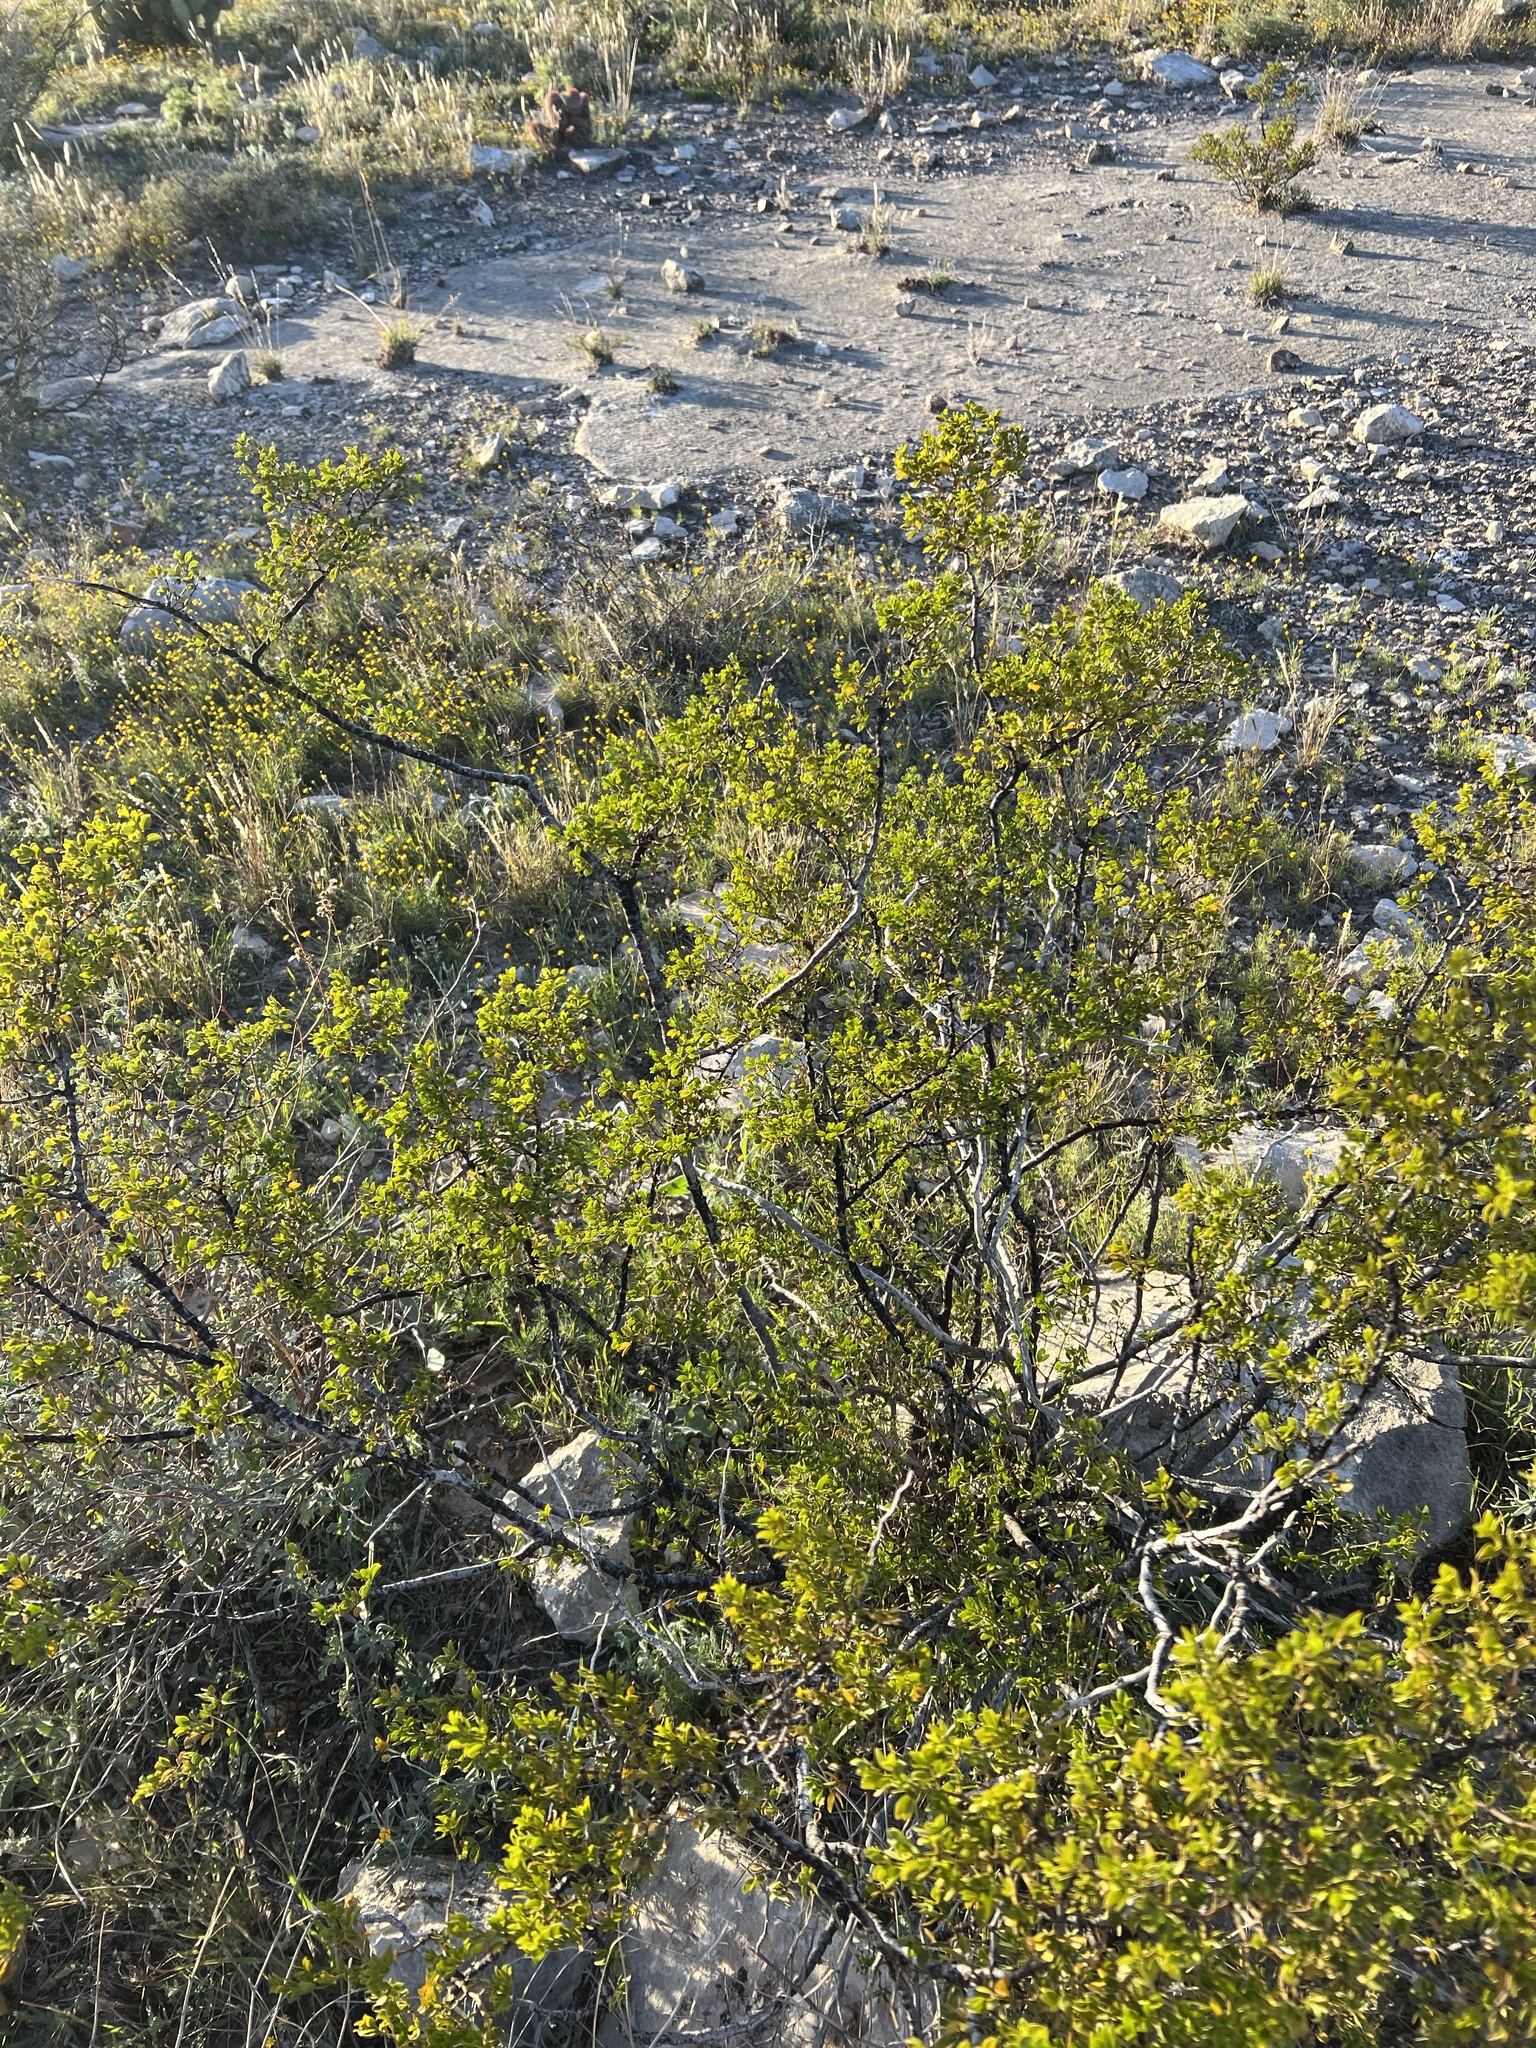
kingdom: Plantae
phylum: Tracheophyta
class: Magnoliopsida
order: Zygophyllales
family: Zygophyllaceae
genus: Larrea
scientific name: Larrea tridentata
